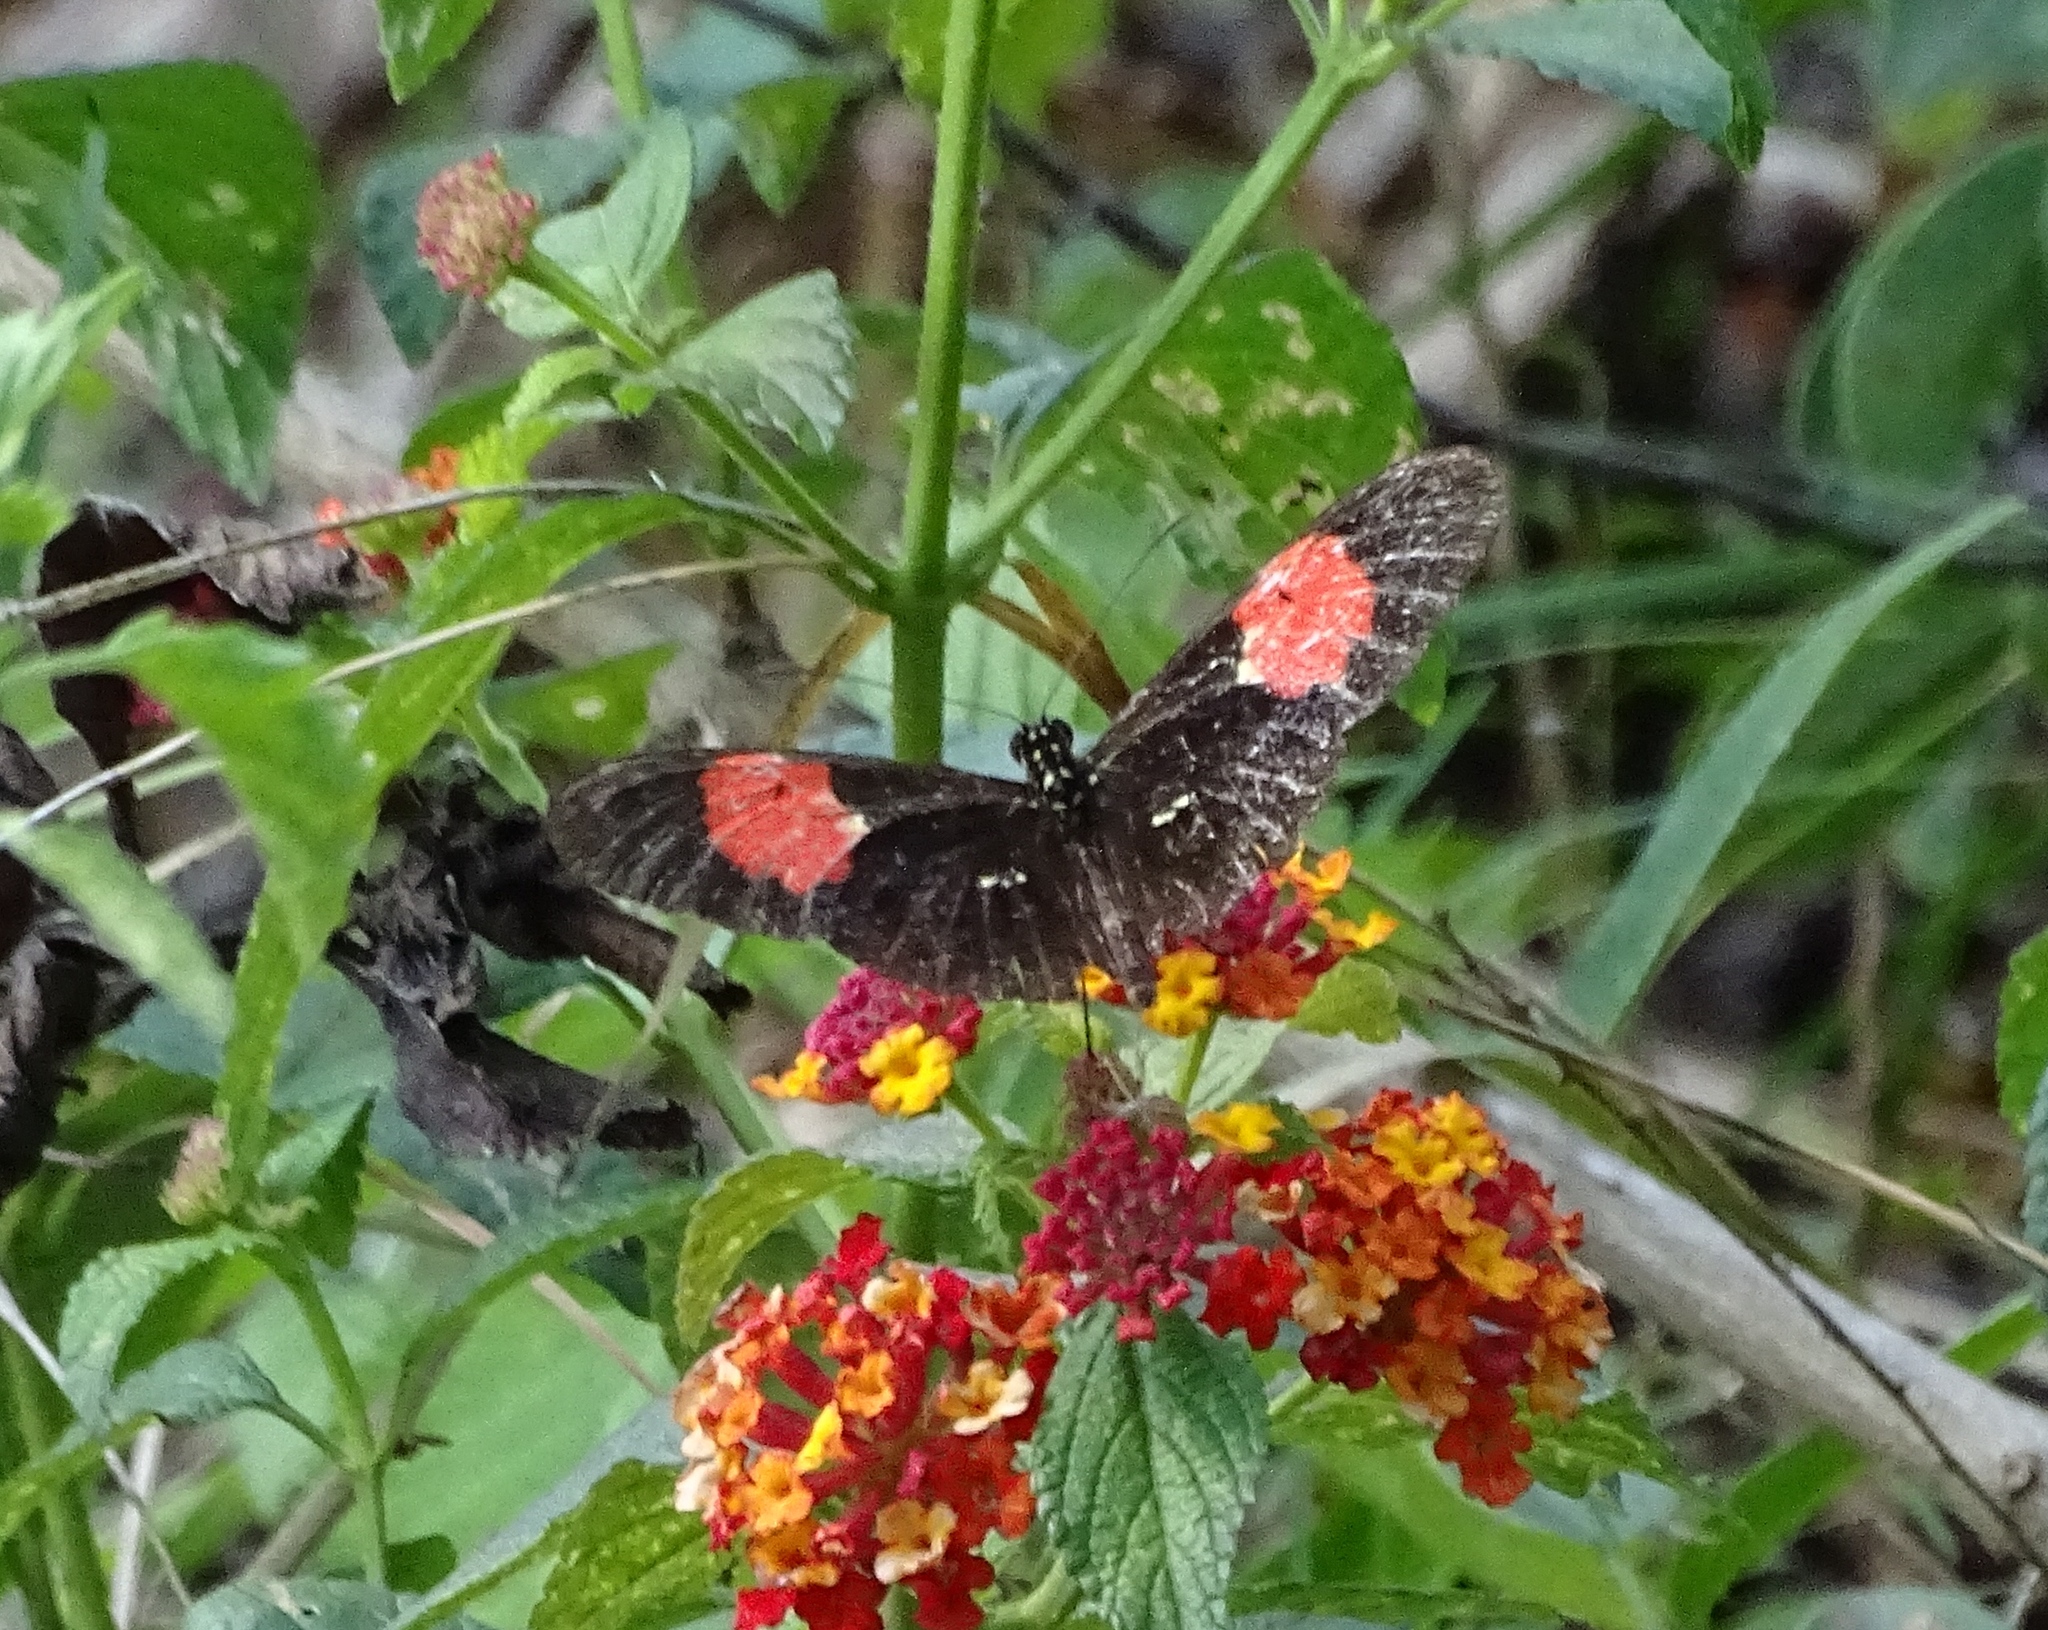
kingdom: Animalia
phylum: Arthropoda
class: Insecta
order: Lepidoptera
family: Nymphalidae
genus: Heliconius
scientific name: Heliconius erato
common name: Common patch longwing
